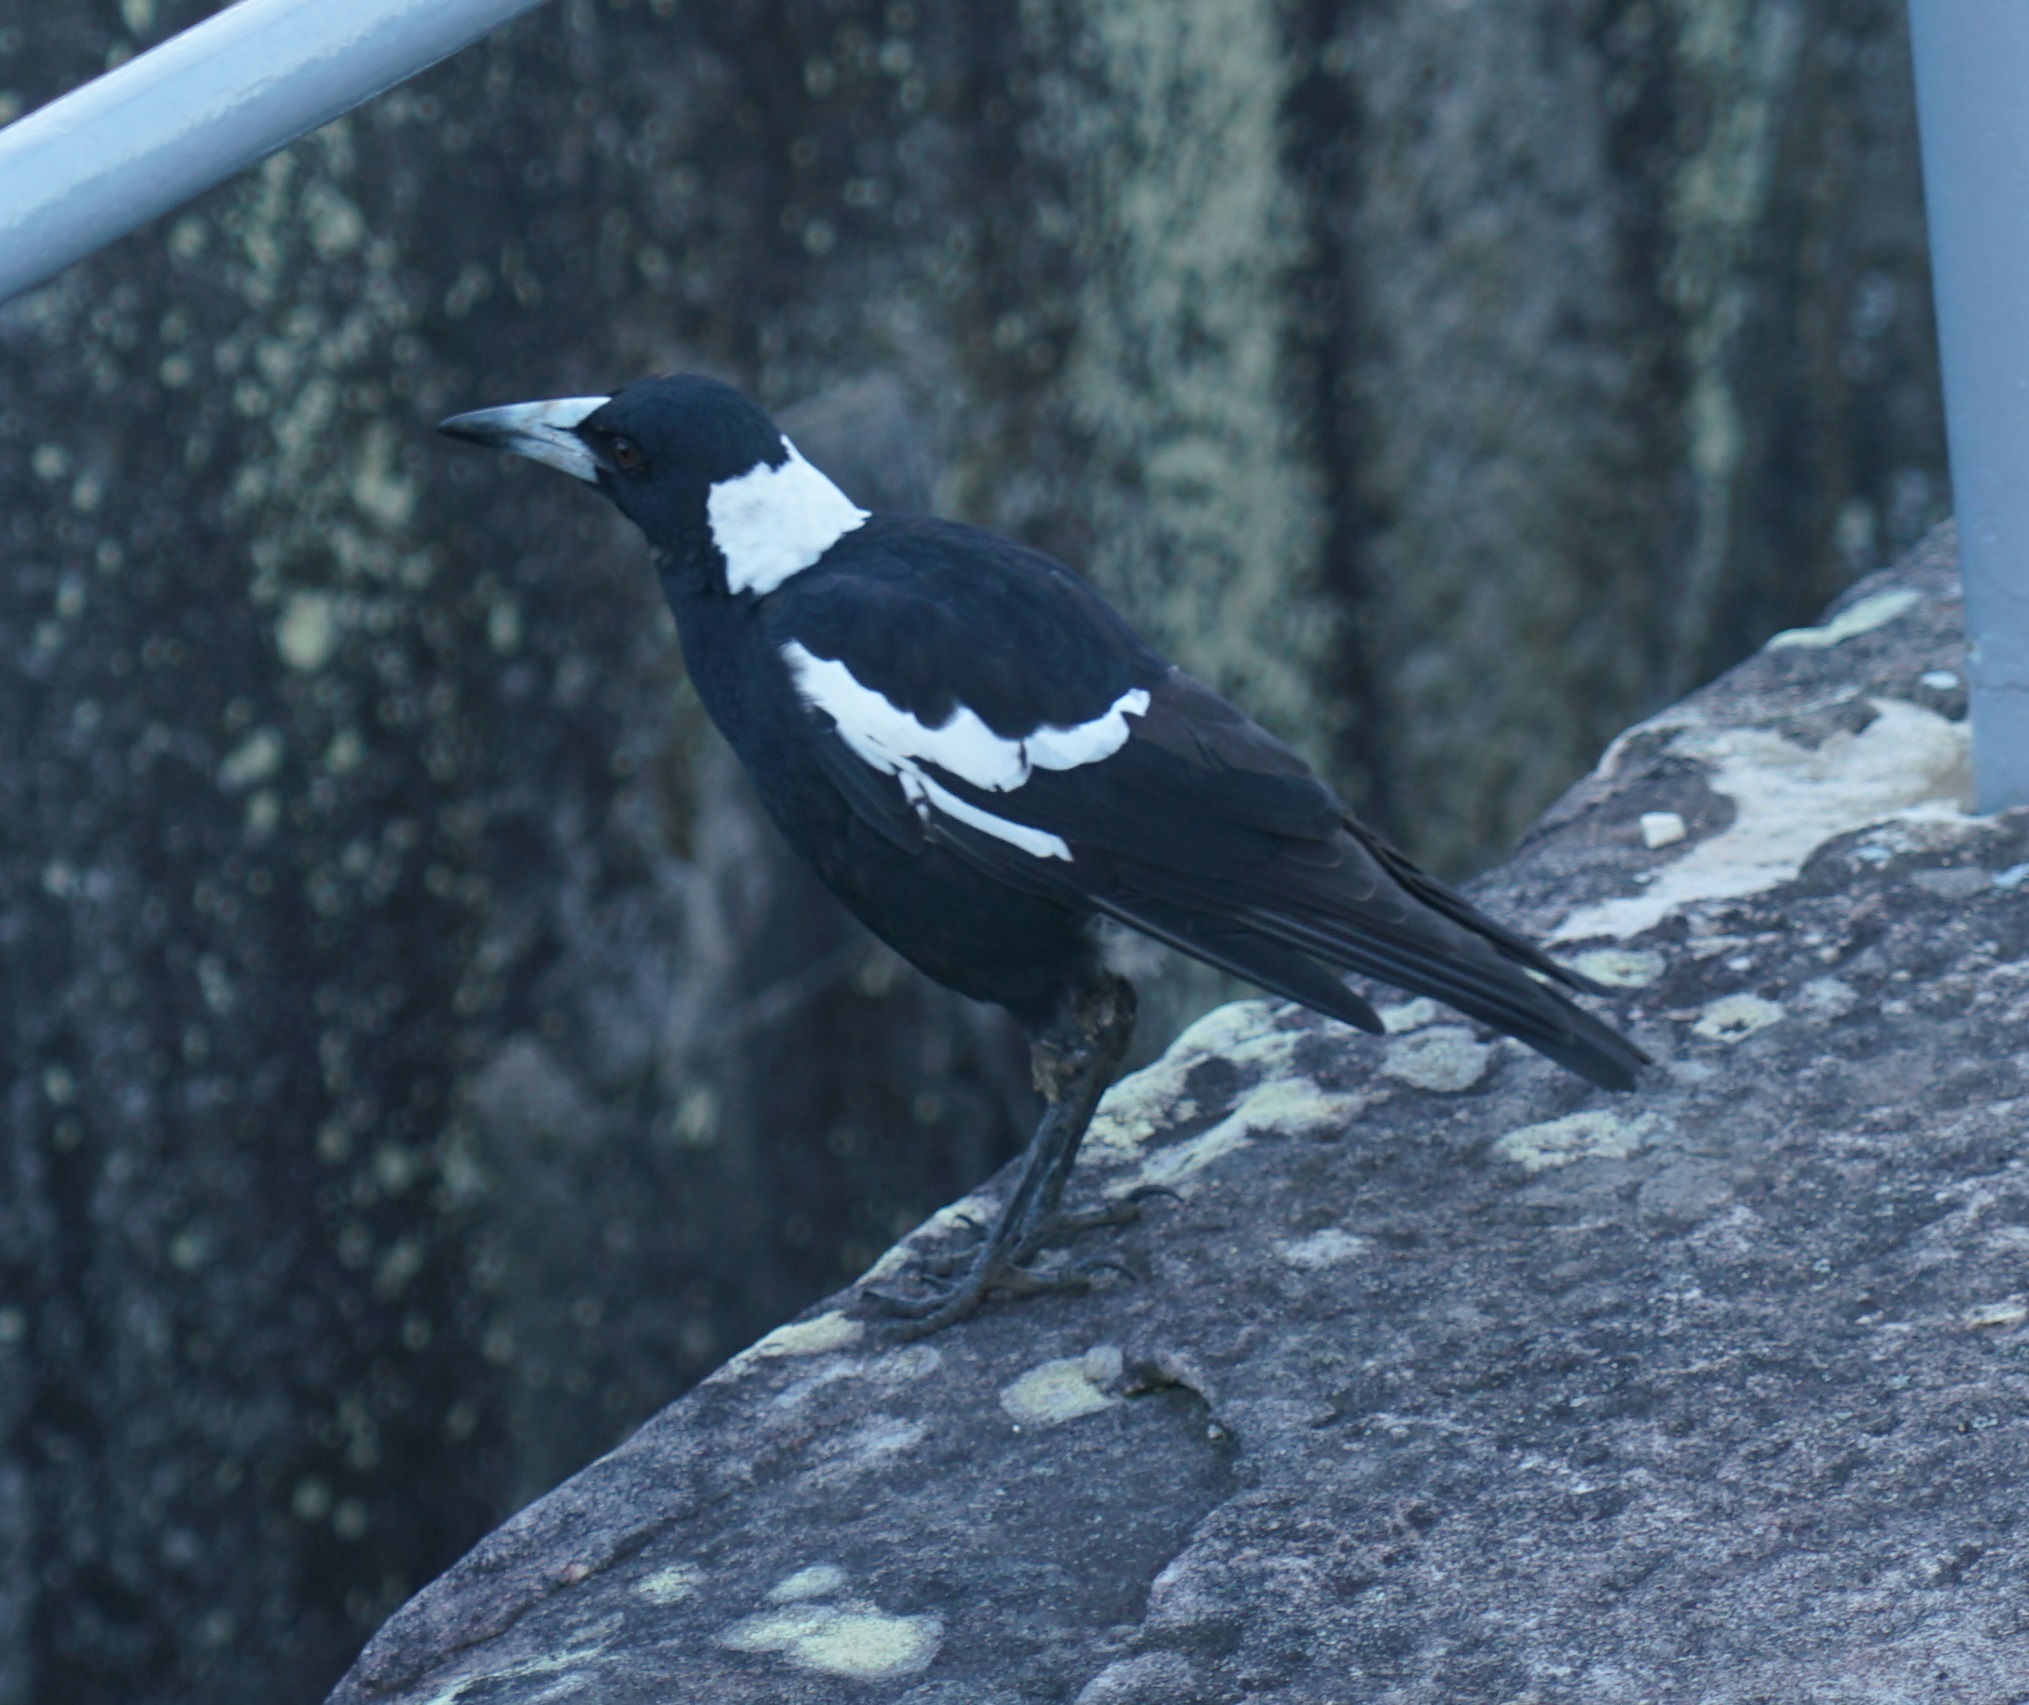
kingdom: Animalia
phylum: Chordata
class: Aves
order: Passeriformes
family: Cracticidae
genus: Gymnorhina
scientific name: Gymnorhina tibicen
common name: Australian magpie
